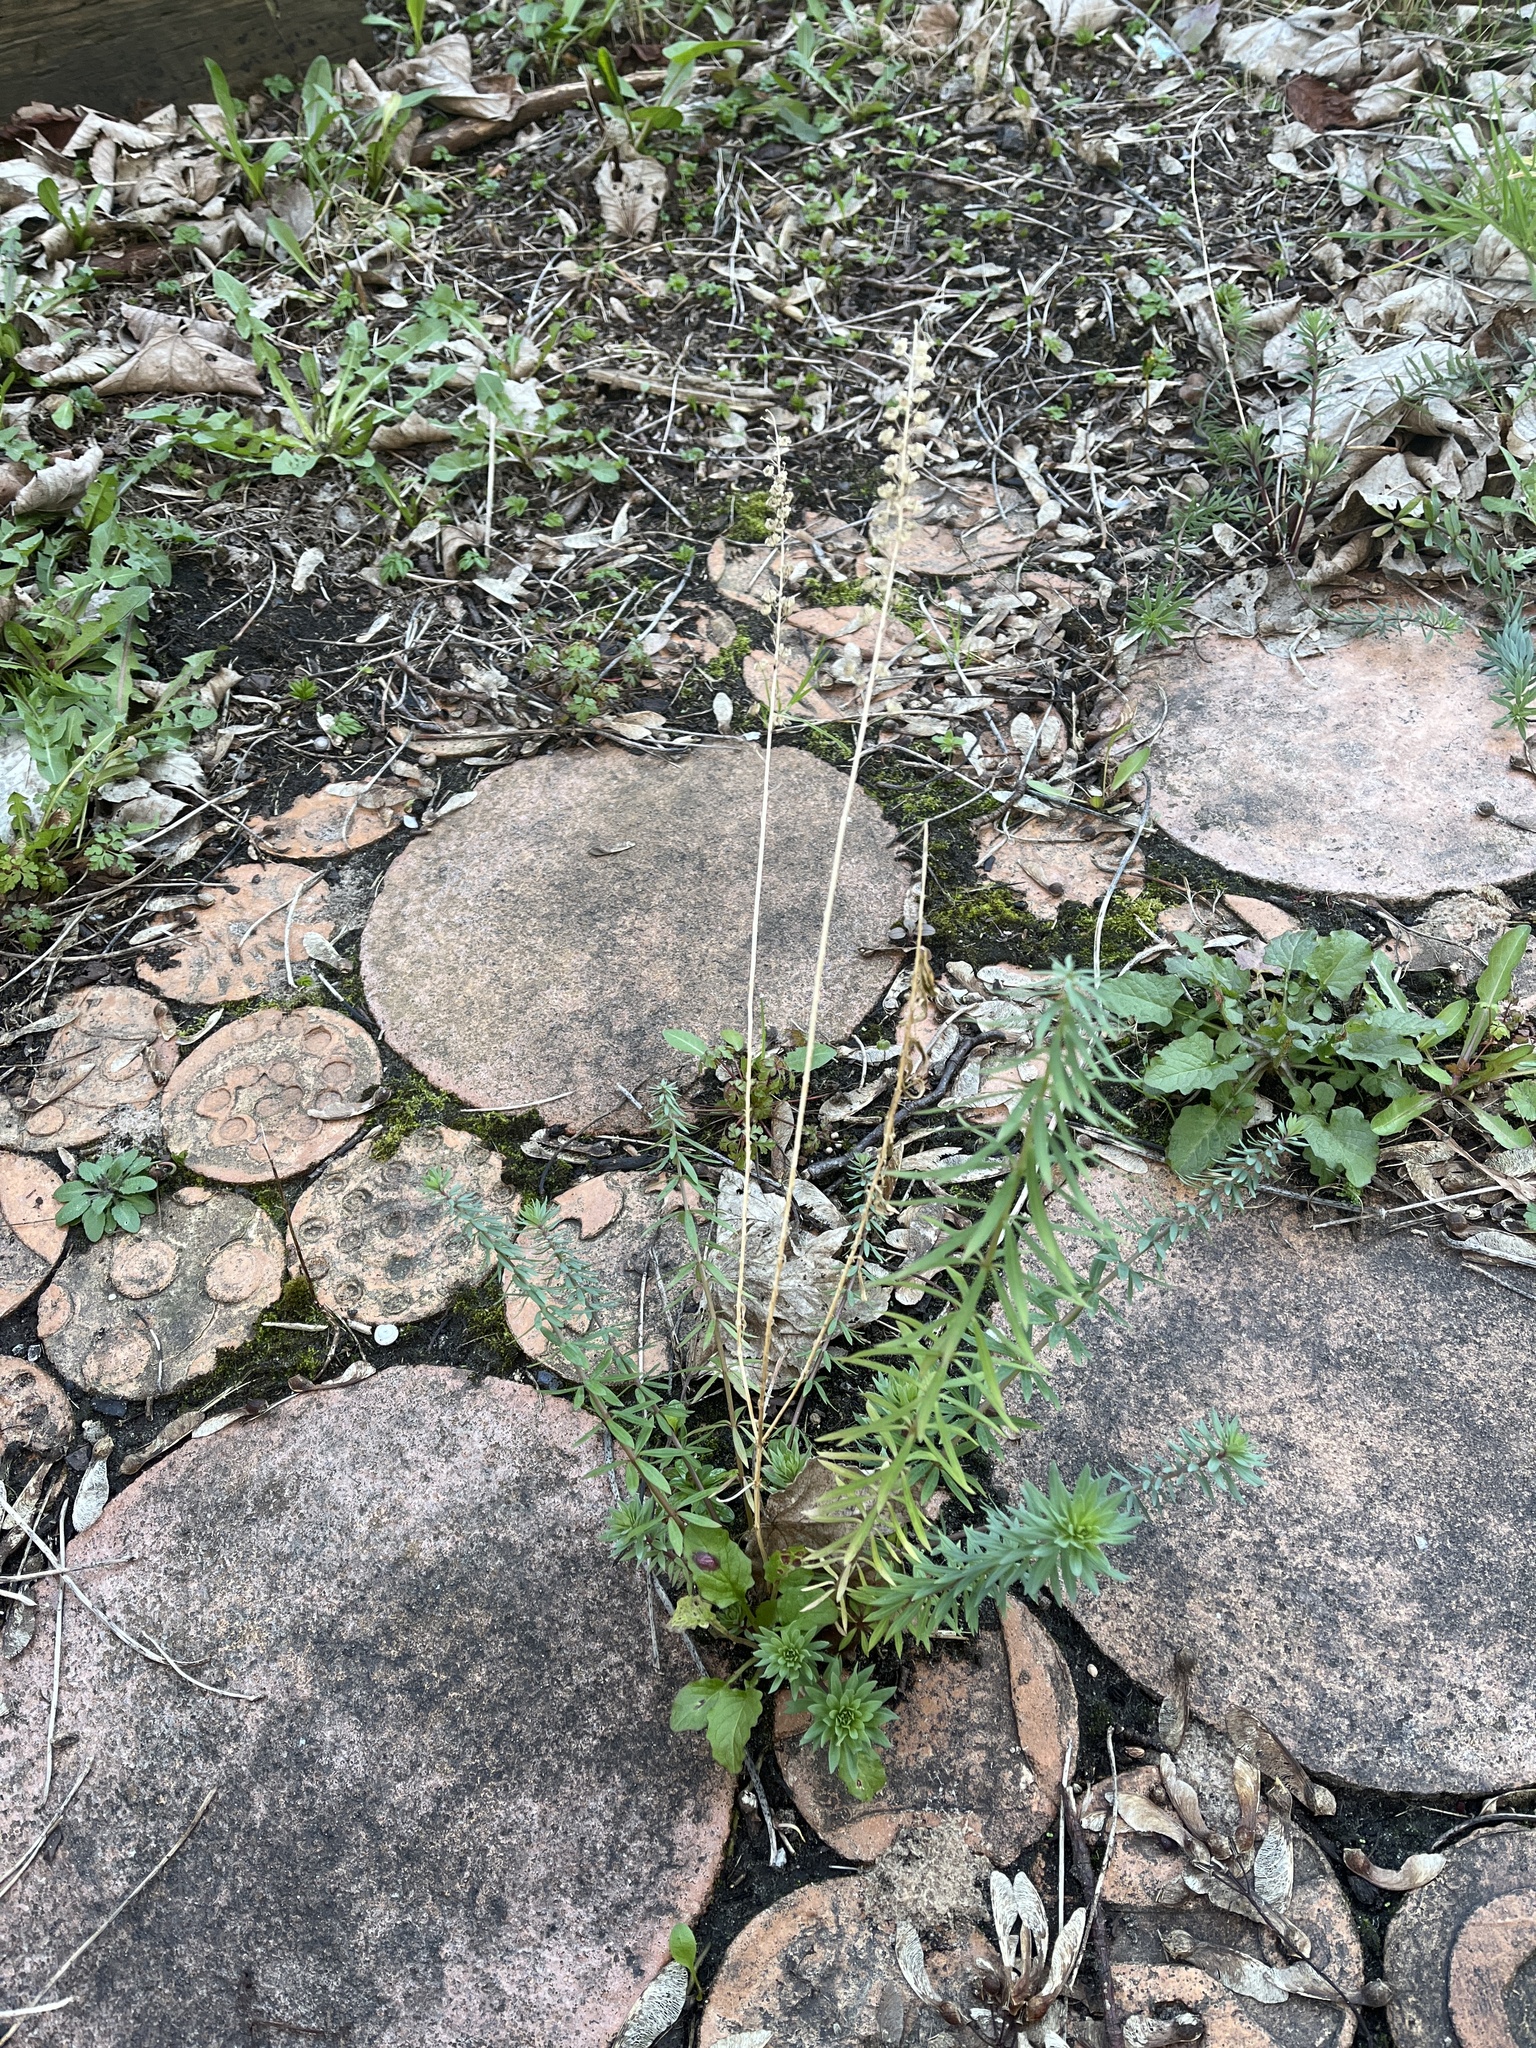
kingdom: Plantae
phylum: Tracheophyta
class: Magnoliopsida
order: Lamiales
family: Plantaginaceae
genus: Linaria
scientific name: Linaria purpurea
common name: Purple toadflax
